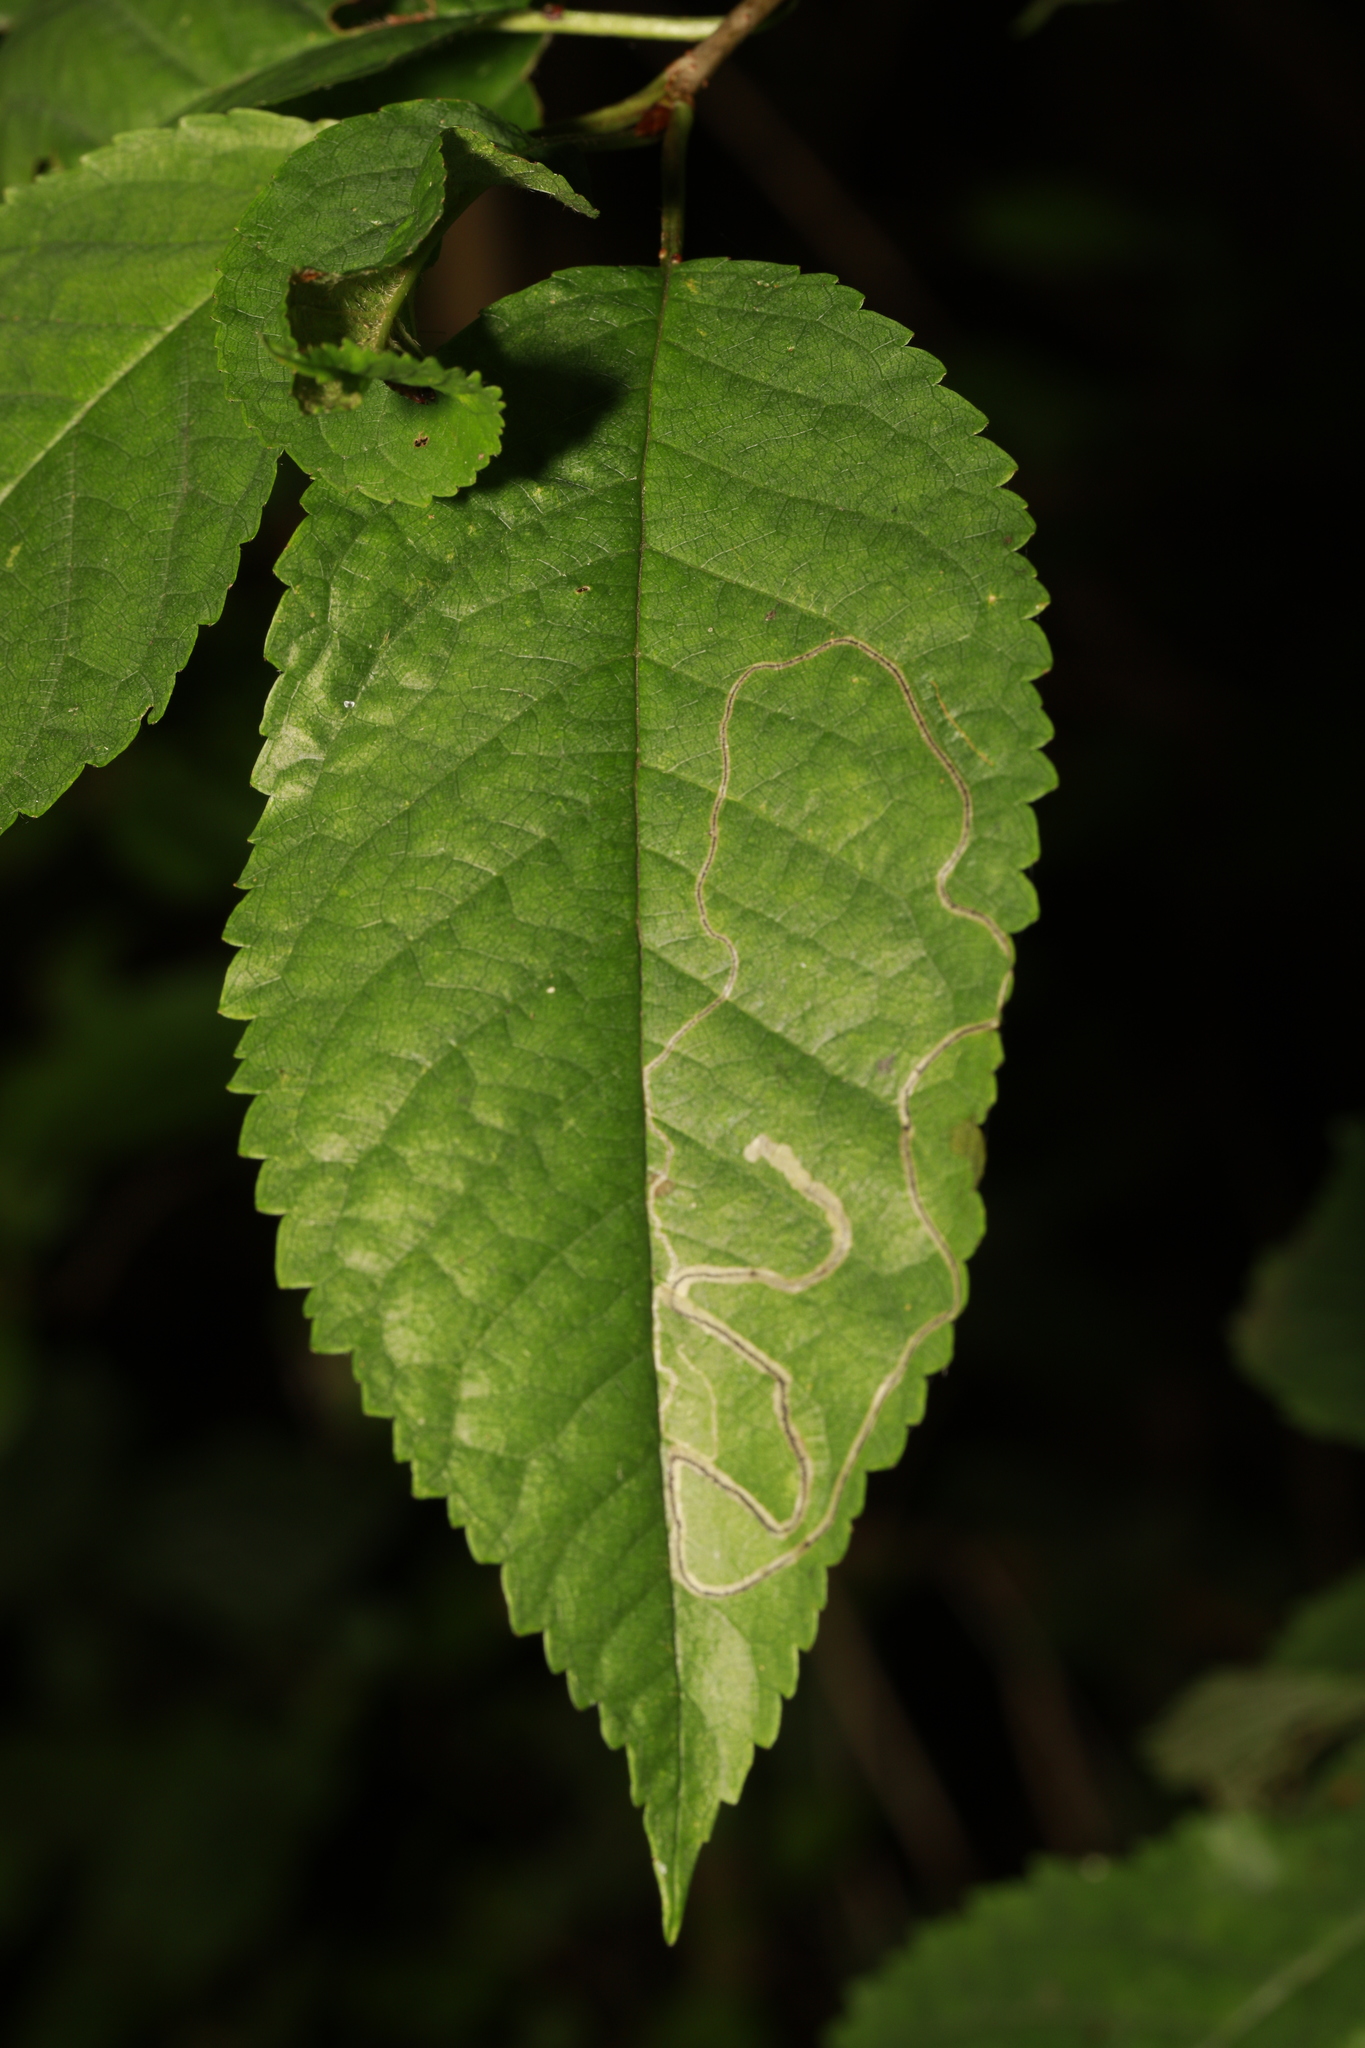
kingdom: Plantae
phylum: Tracheophyta
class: Magnoliopsida
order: Rosales
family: Rosaceae
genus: Prunus
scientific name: Prunus avium
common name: Sweet cherry
